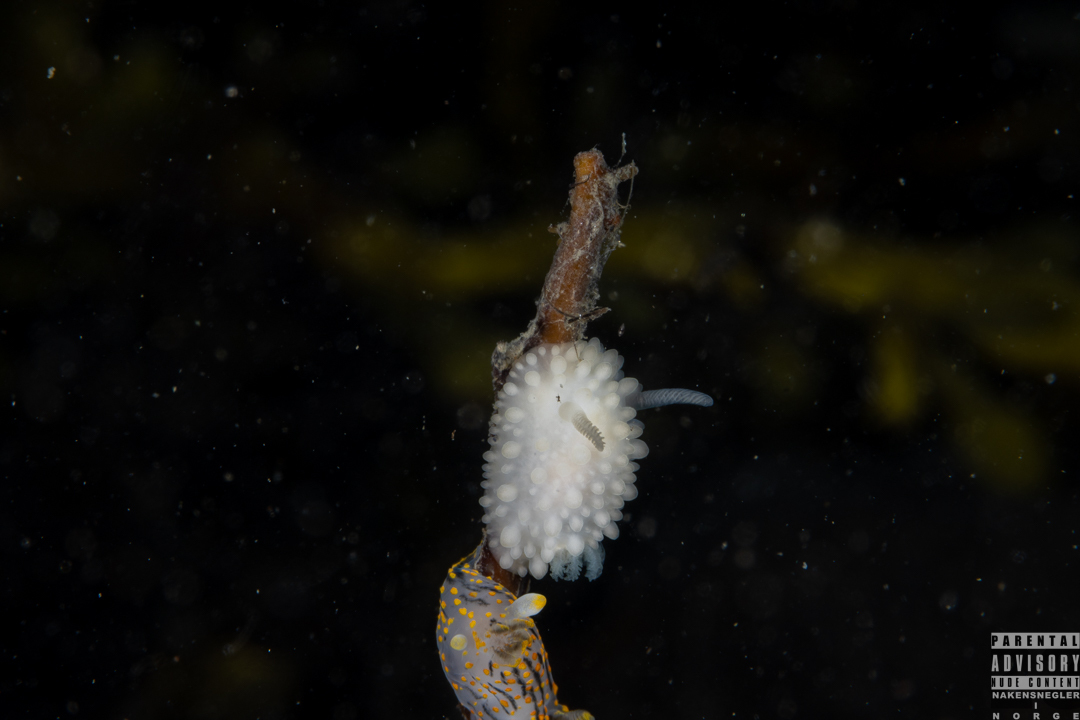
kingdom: Animalia
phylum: Mollusca
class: Gastropoda
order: Nudibranchia
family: Onchidorididae
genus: Adalaria
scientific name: Adalaria proxima
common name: False doris
